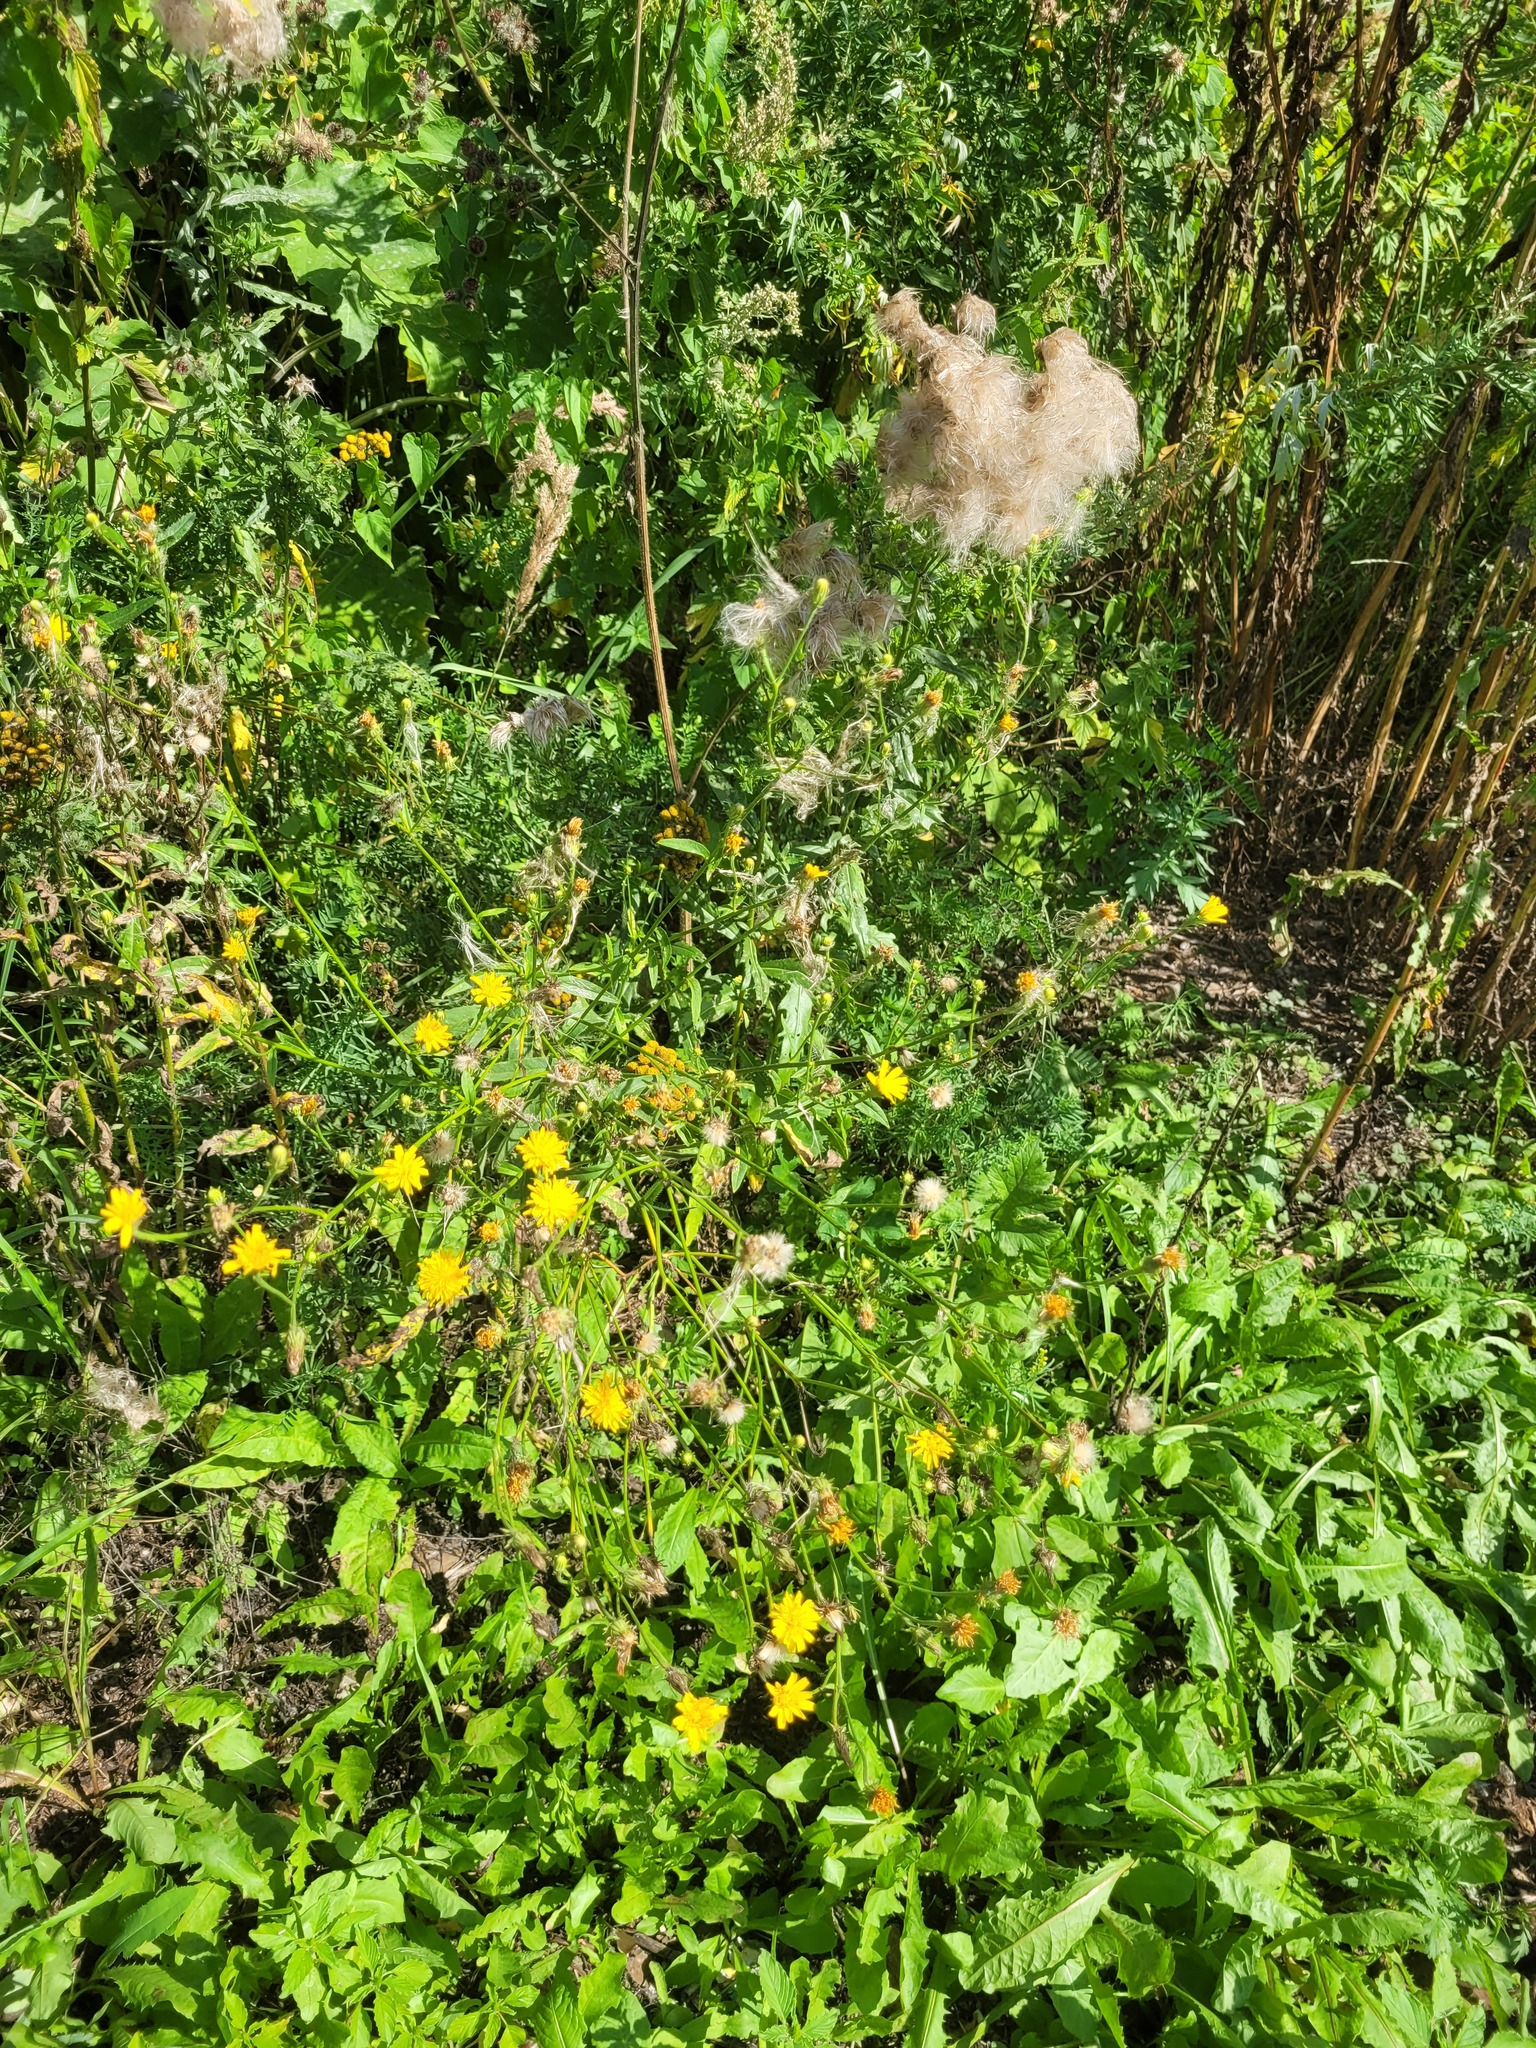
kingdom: Plantae
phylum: Tracheophyta
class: Magnoliopsida
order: Asterales
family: Asteraceae
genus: Picris
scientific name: Picris hieracioides
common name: Hawkweed oxtongue
